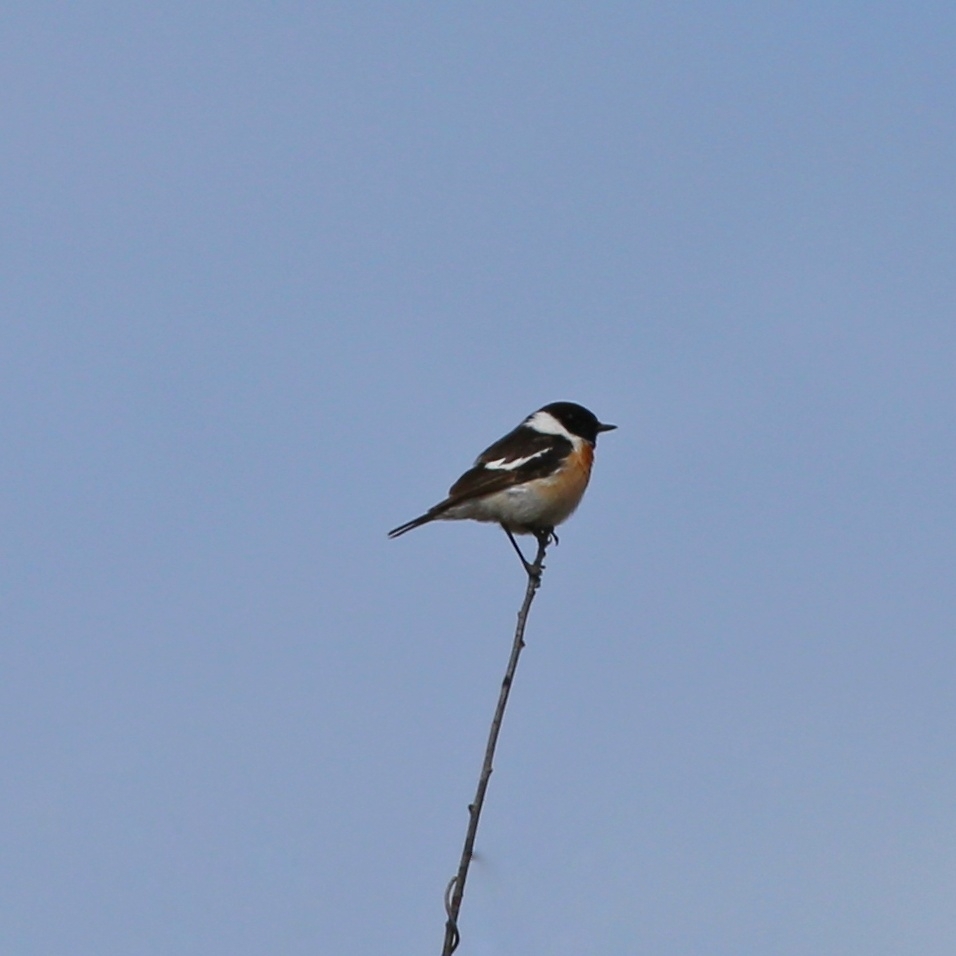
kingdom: Animalia
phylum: Chordata
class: Aves
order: Passeriformes
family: Muscicapidae
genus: Saxicola
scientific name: Saxicola maurus
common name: Siberian stonechat
